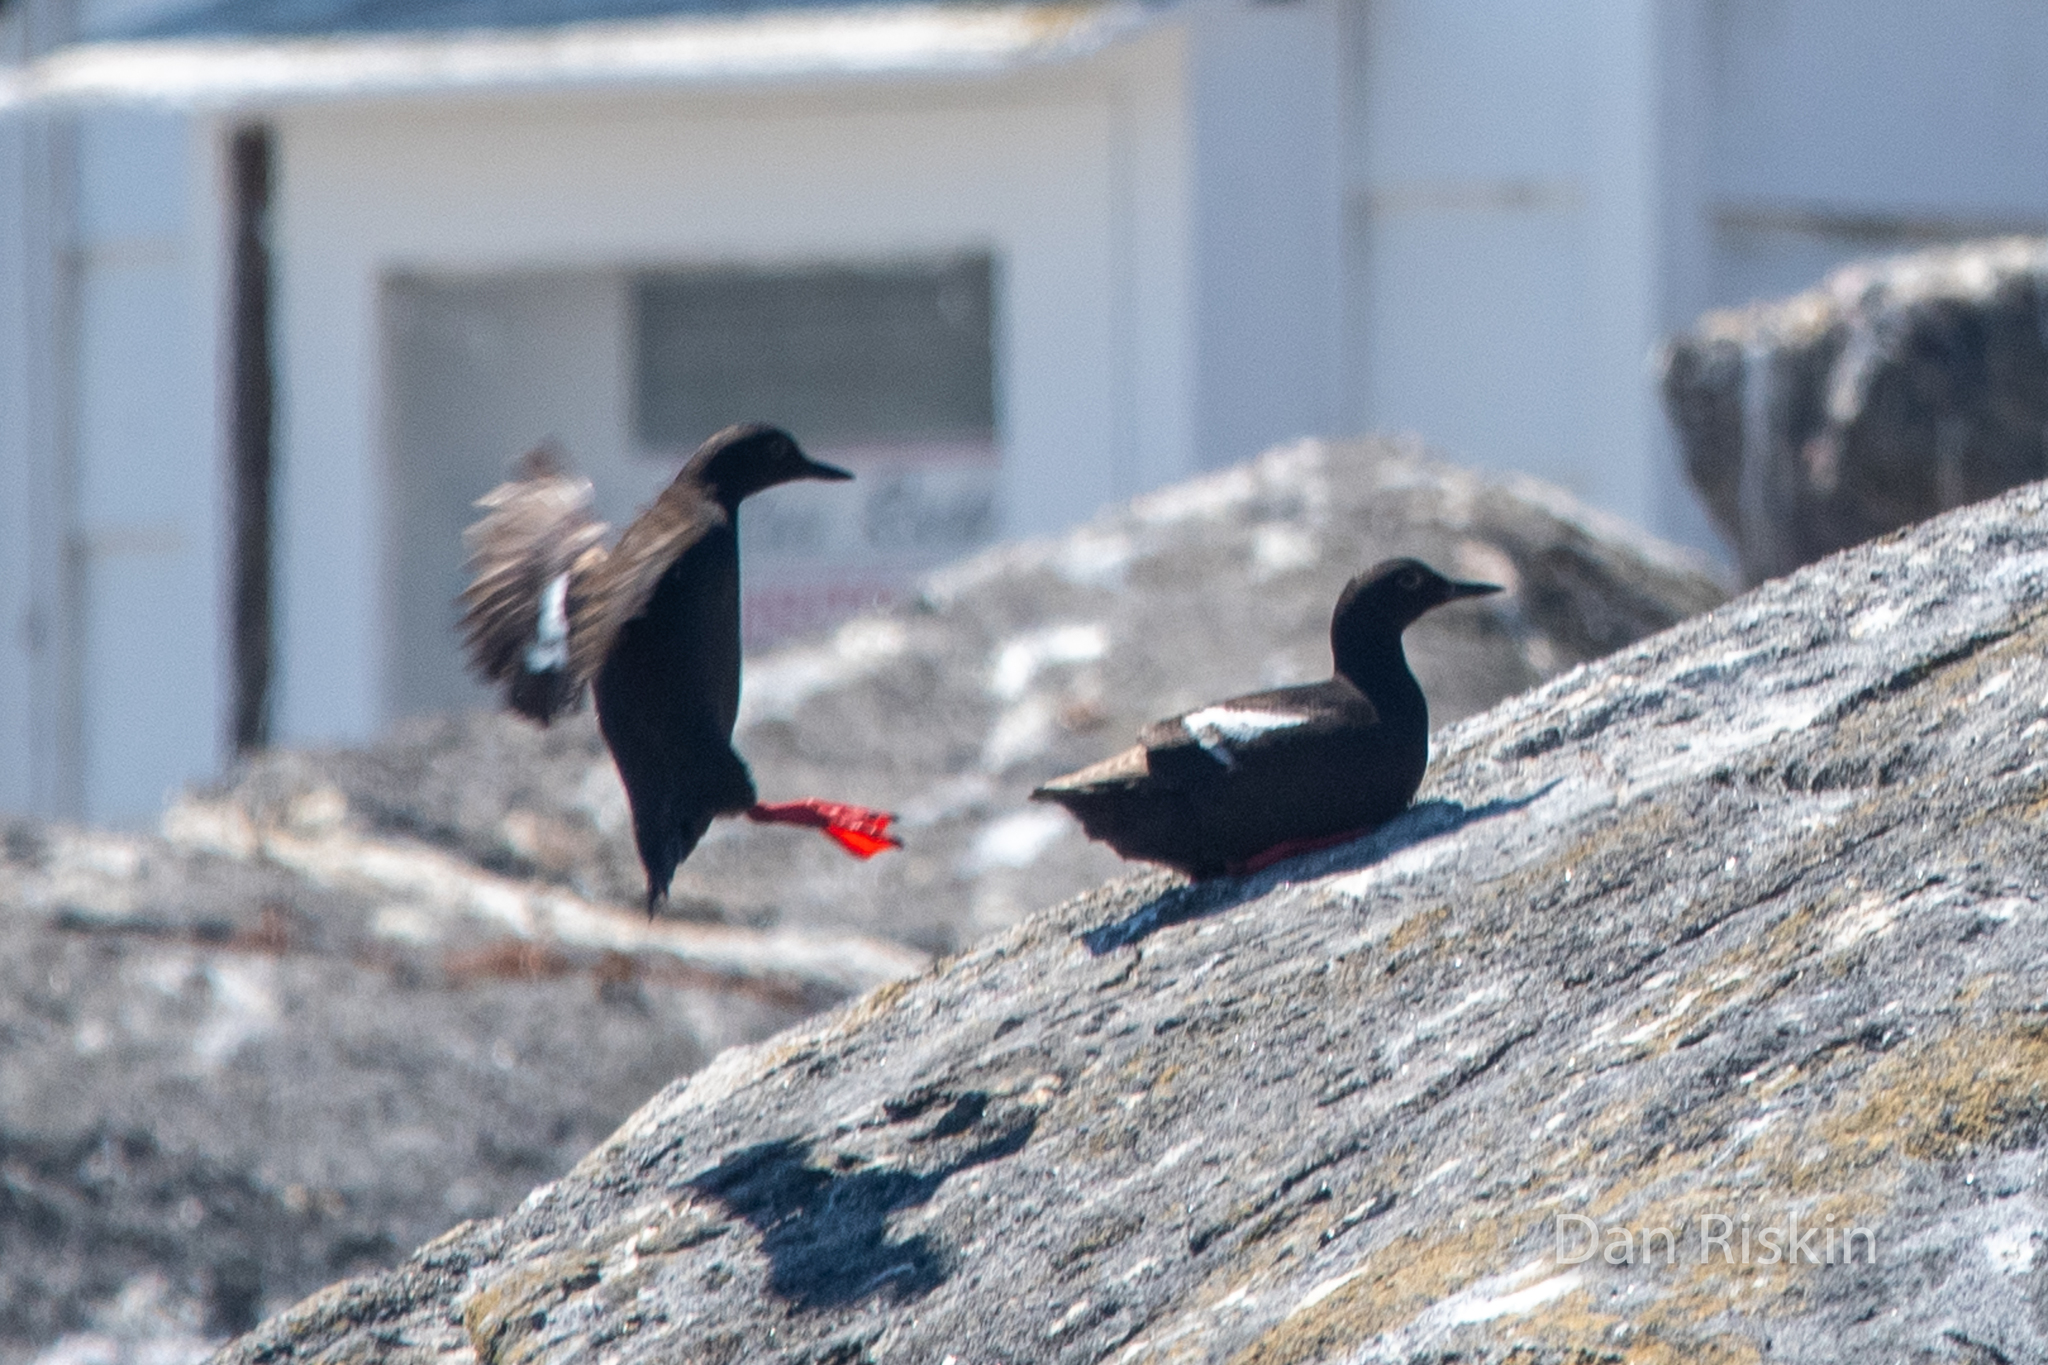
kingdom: Animalia
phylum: Chordata
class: Aves
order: Charadriiformes
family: Alcidae
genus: Cepphus
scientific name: Cepphus columba
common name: Pigeon guillemot
